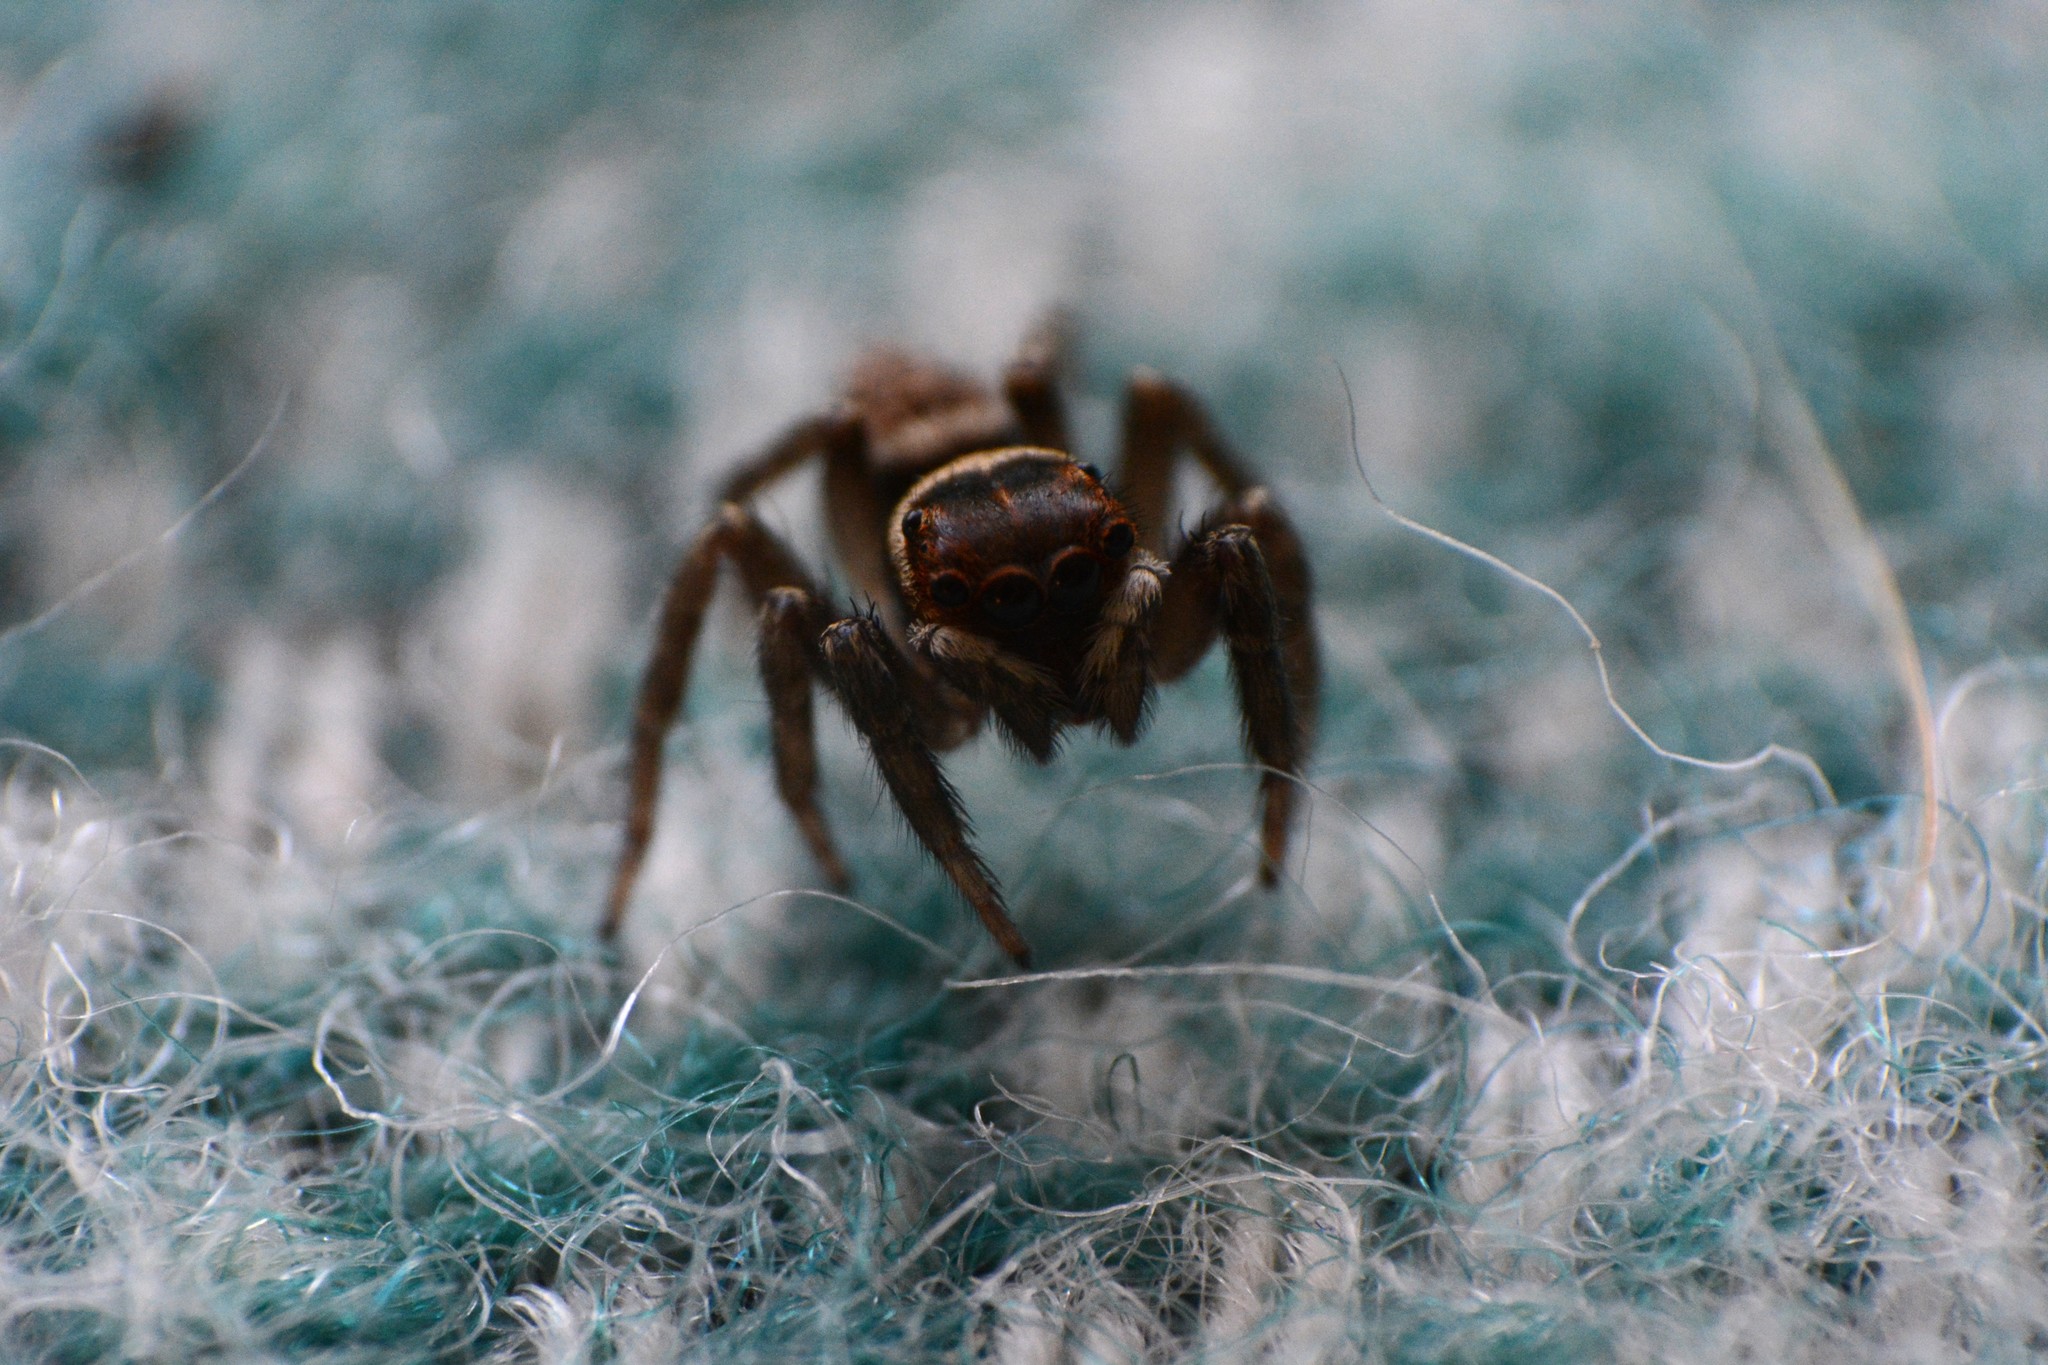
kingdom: Animalia
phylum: Arthropoda
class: Arachnida
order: Araneae
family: Salticidae
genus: Hasarius
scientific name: Hasarius adansoni
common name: Jumping spider
